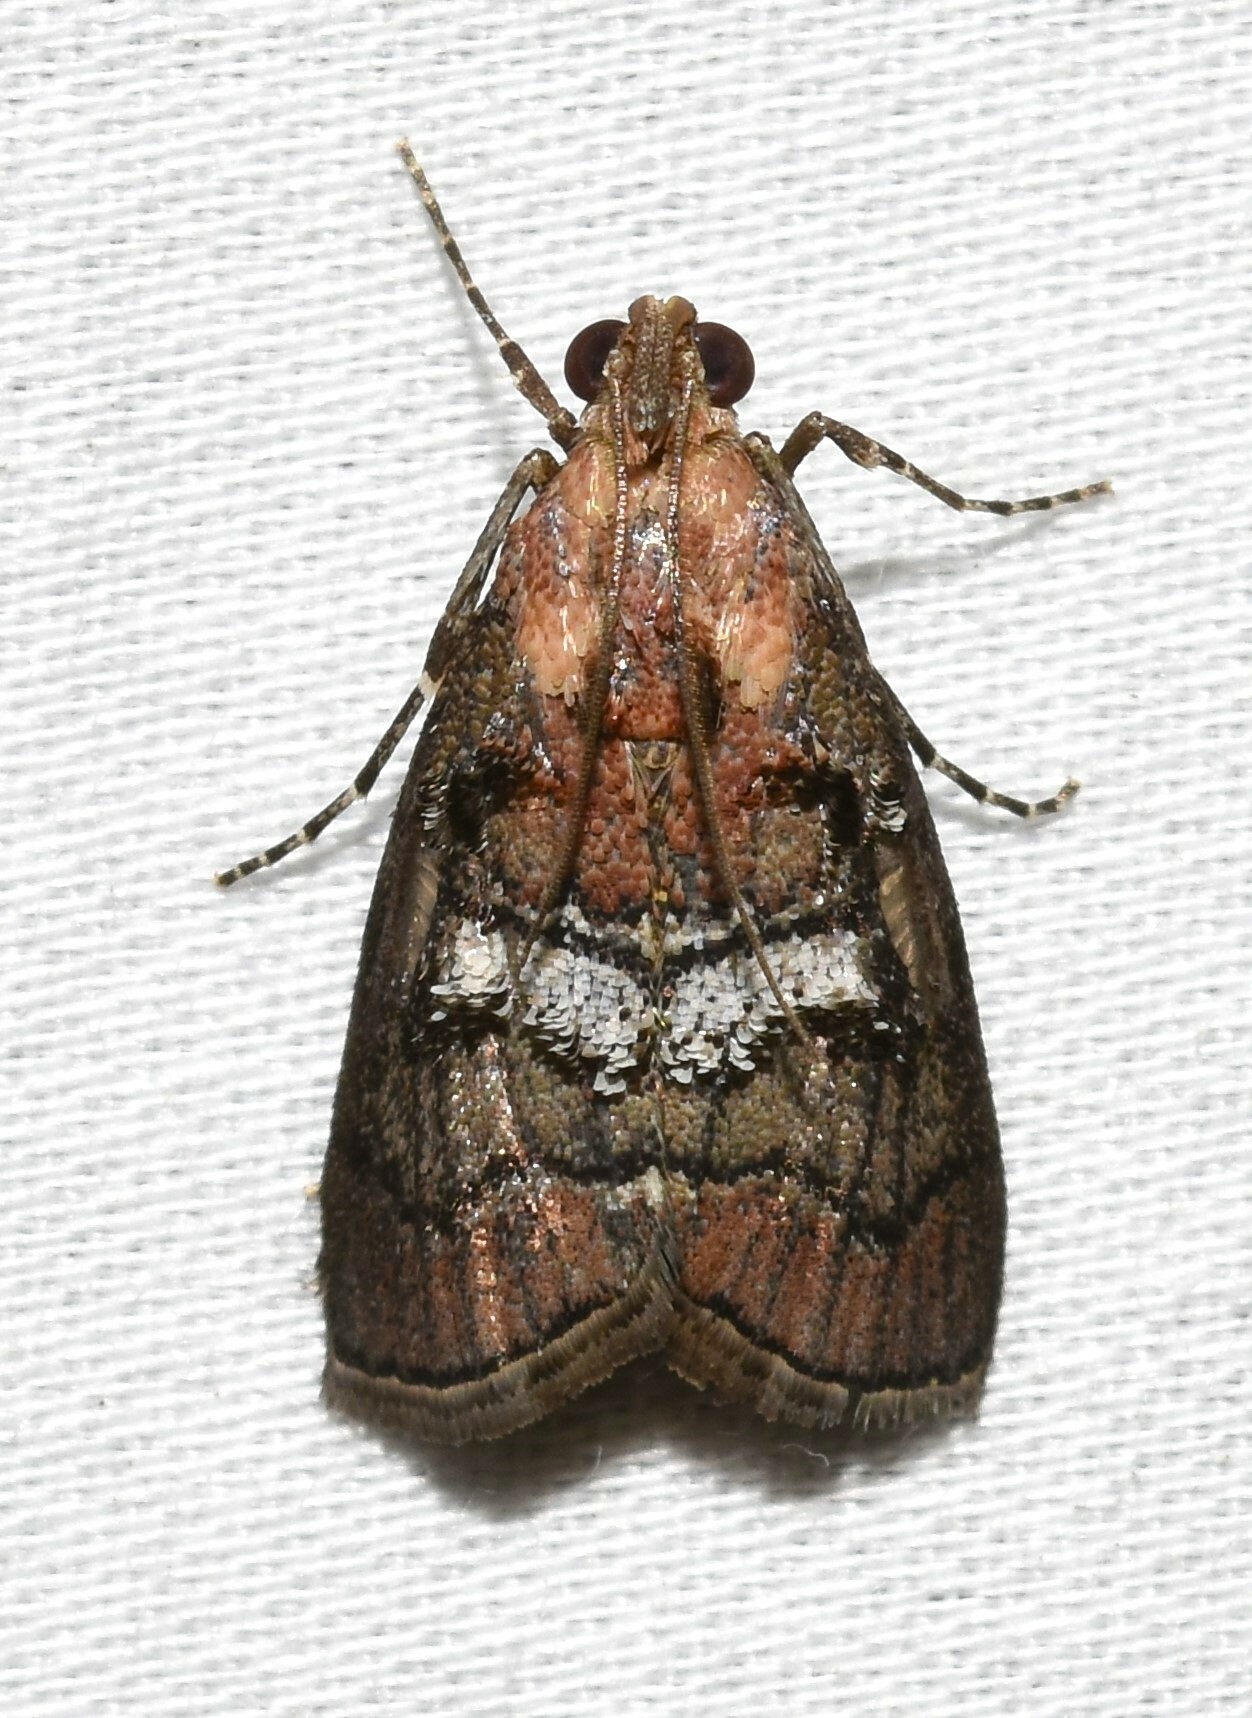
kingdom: Animalia
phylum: Arthropoda
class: Insecta
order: Lepidoptera
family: Pyralidae
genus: Pococera
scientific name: Pococera maritimalis
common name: Gray-banded pococera moth
